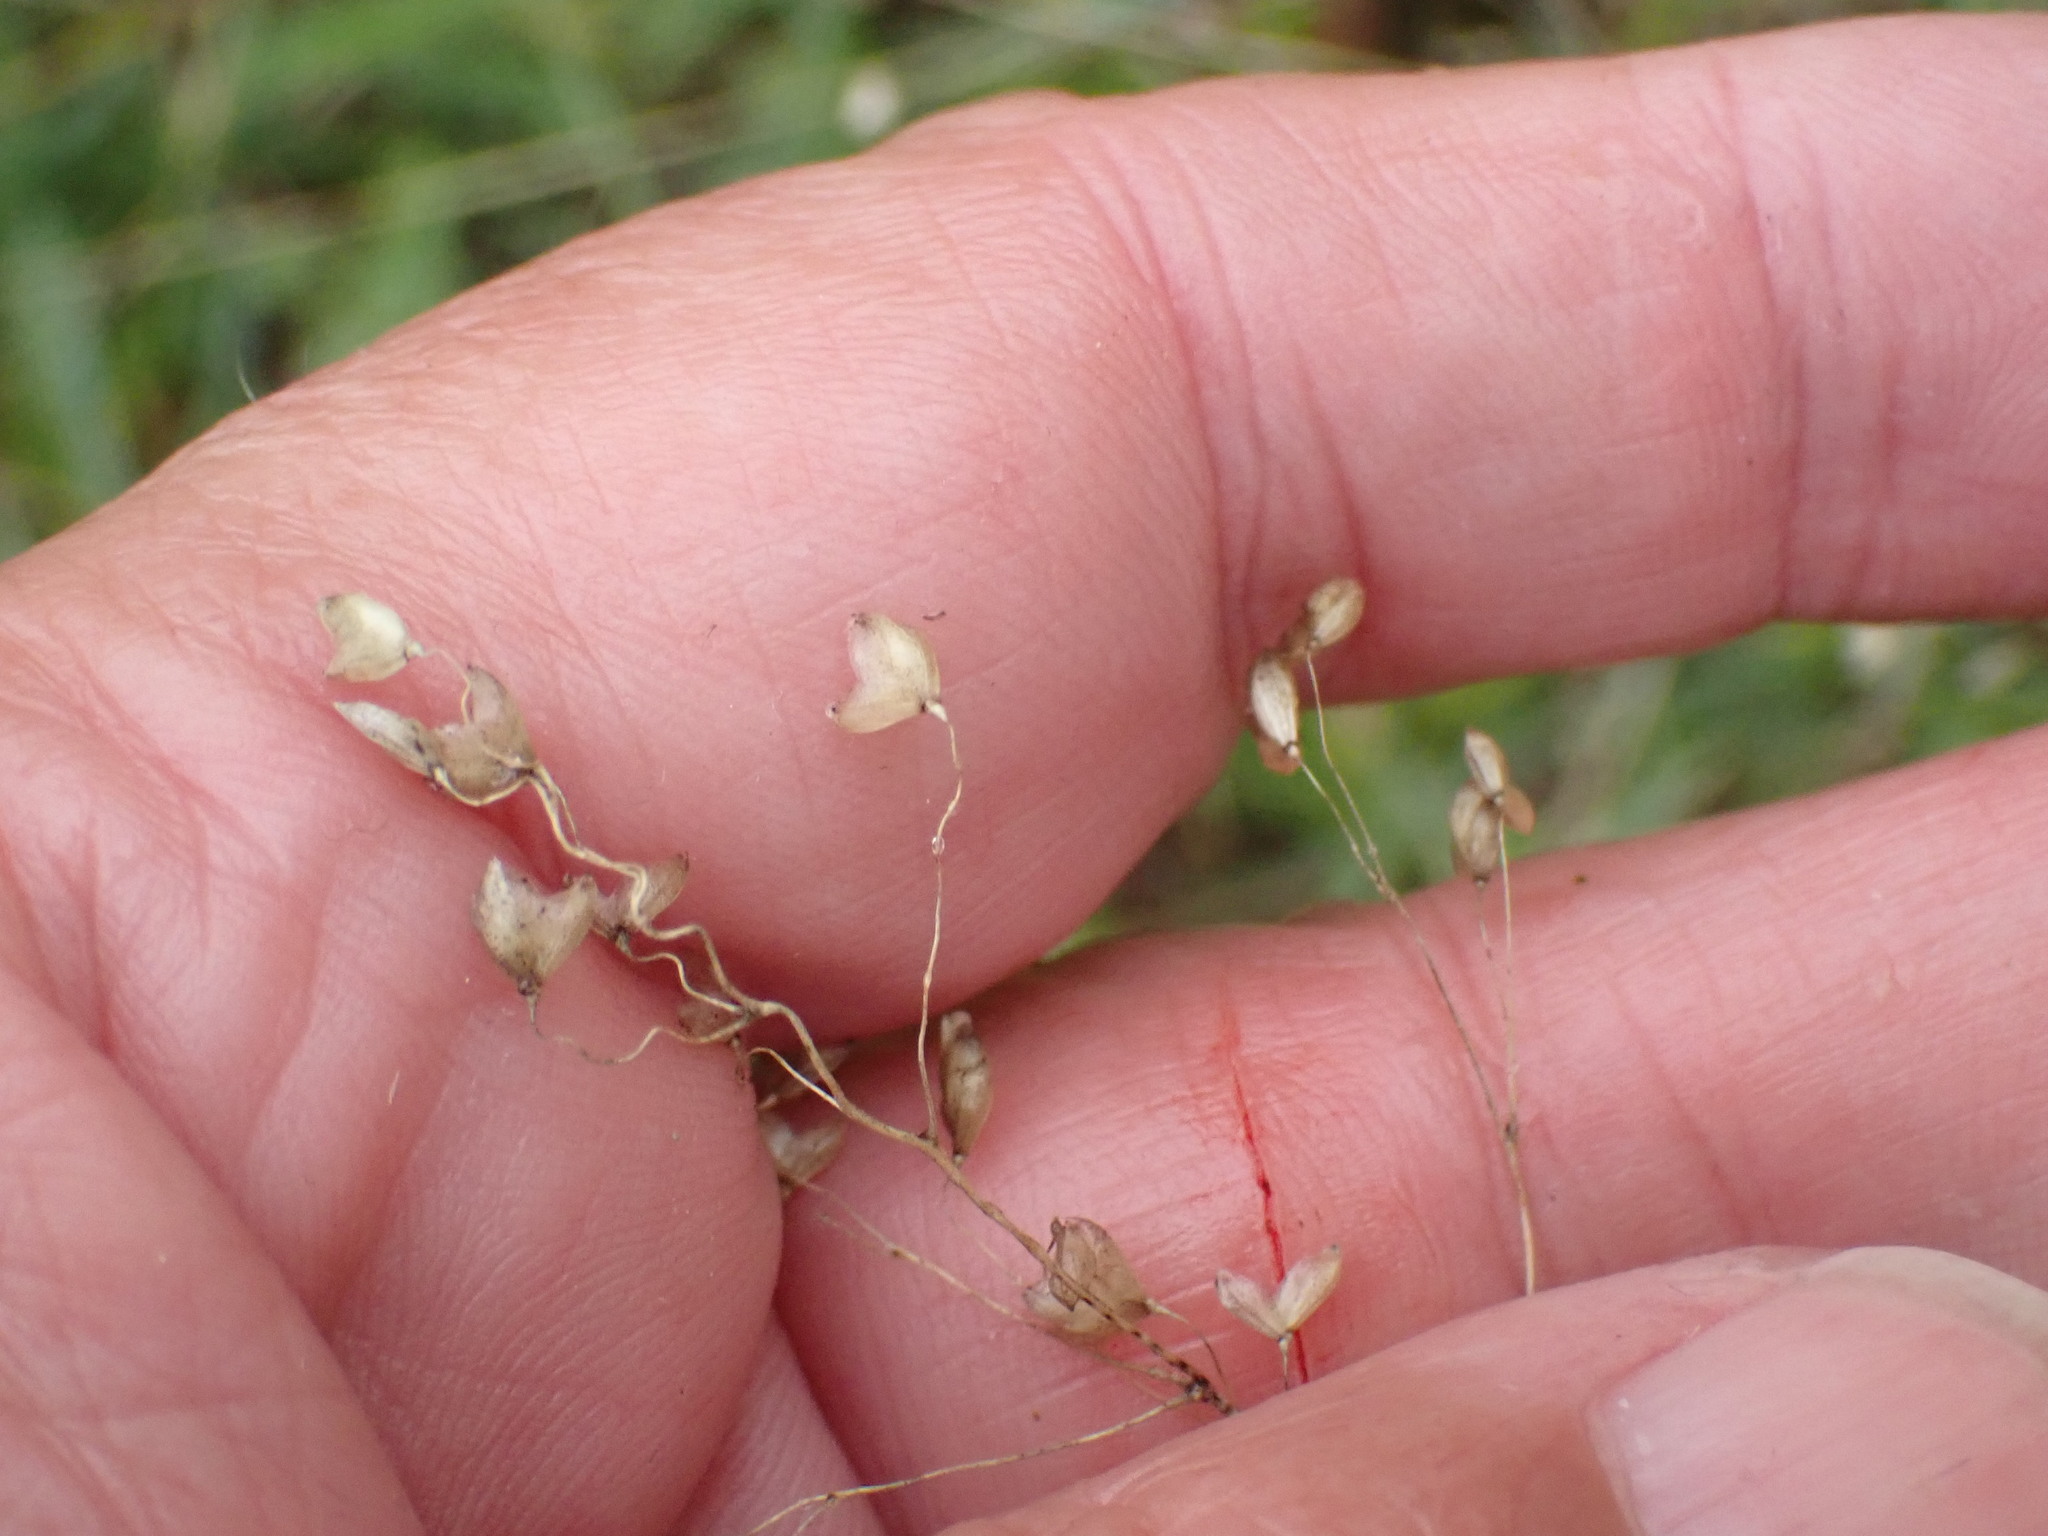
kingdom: Plantae
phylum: Tracheophyta
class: Liliopsida
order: Poales
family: Poaceae
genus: Briza
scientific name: Briza media
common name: Quaking grass
